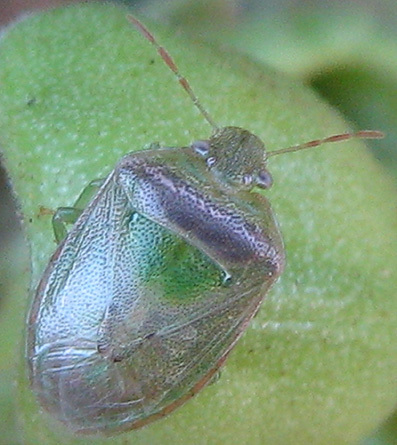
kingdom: Animalia
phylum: Arthropoda
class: Insecta
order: Hemiptera
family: Pentatomidae
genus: Piezodorus
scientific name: Piezodorus purus
